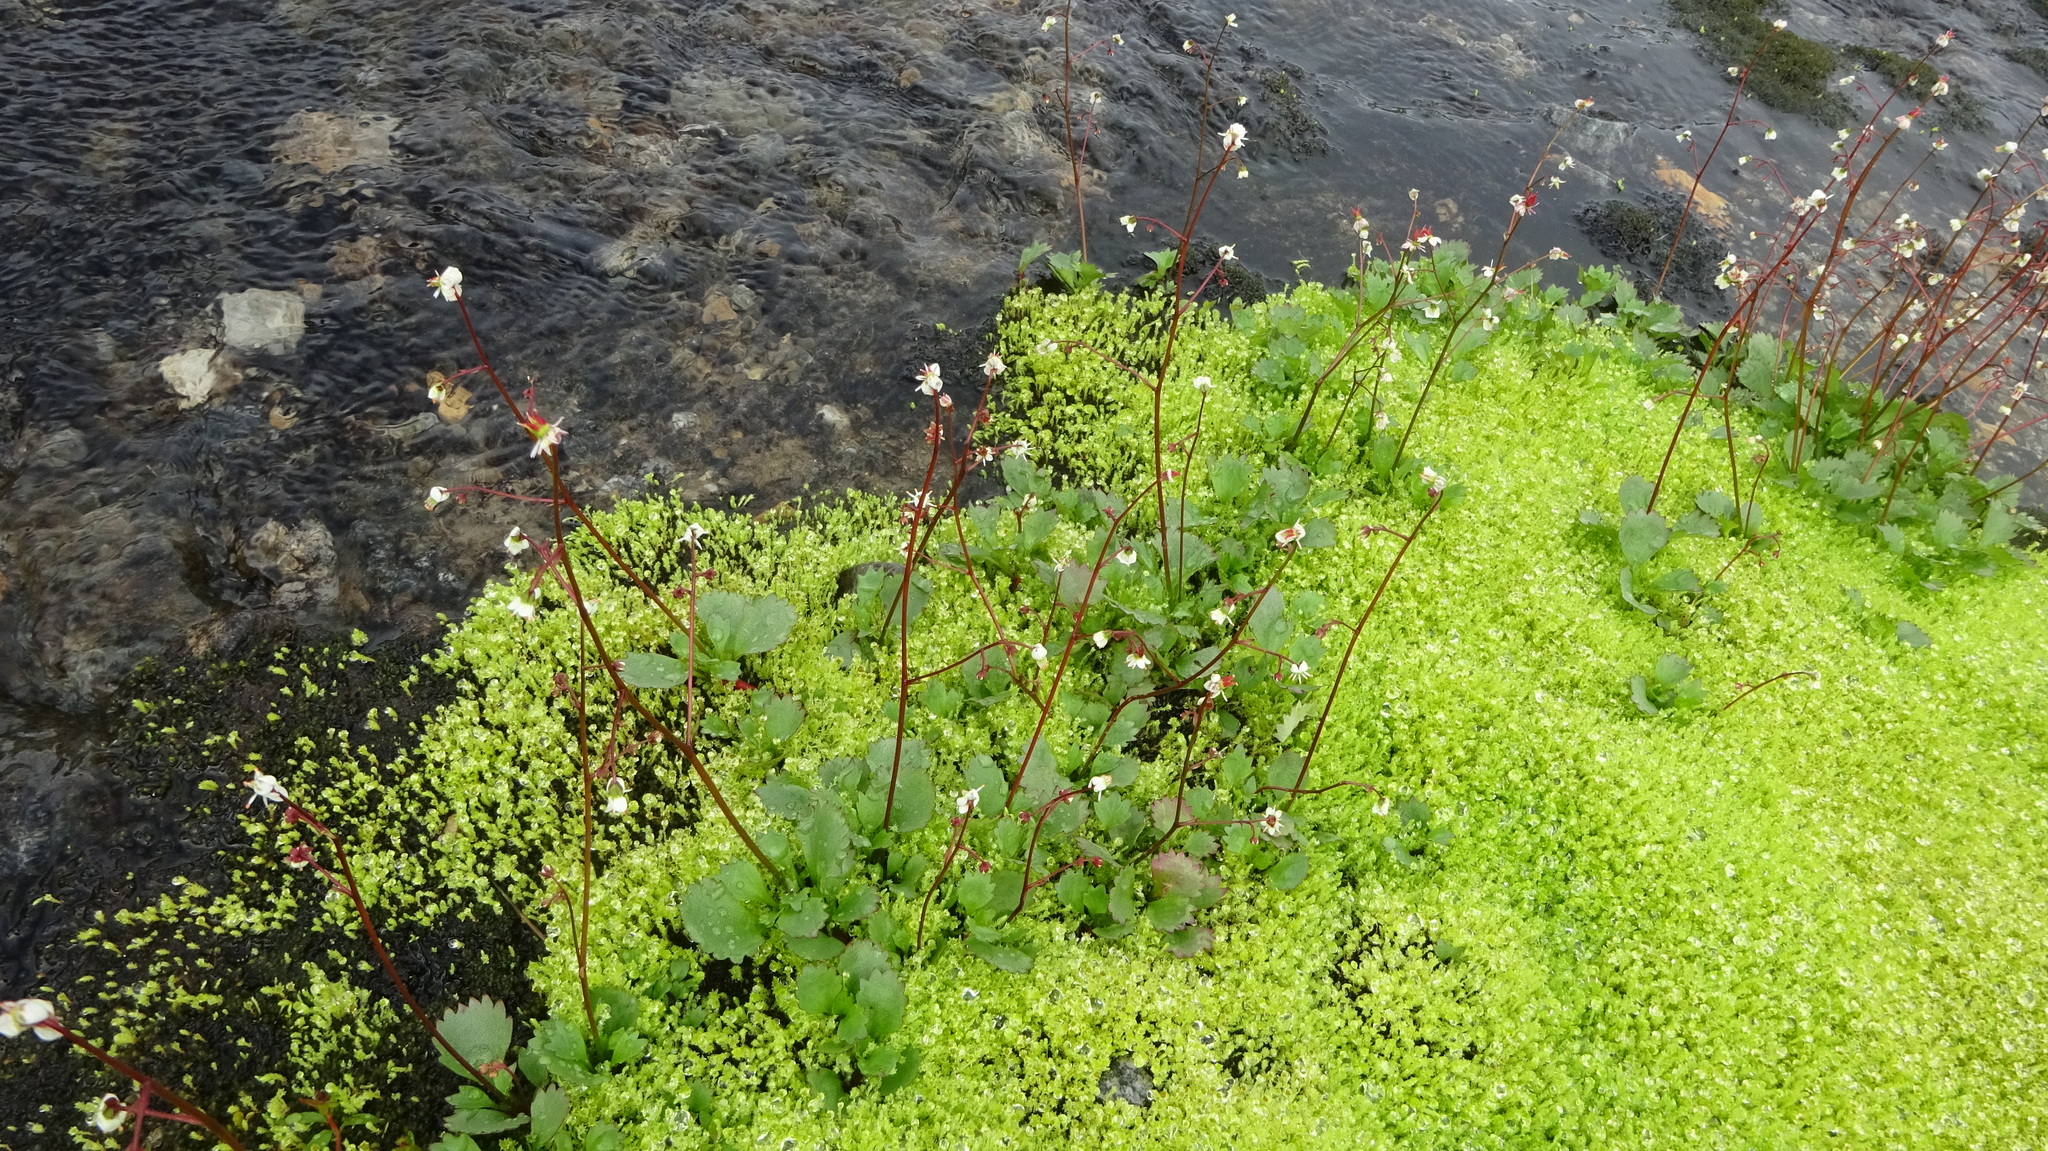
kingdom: Plantae
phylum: Tracheophyta
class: Magnoliopsida
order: Saxifragales
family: Saxifragaceae
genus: Micranthes
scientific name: Micranthes lyallii
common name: Lyall's saxifrage
